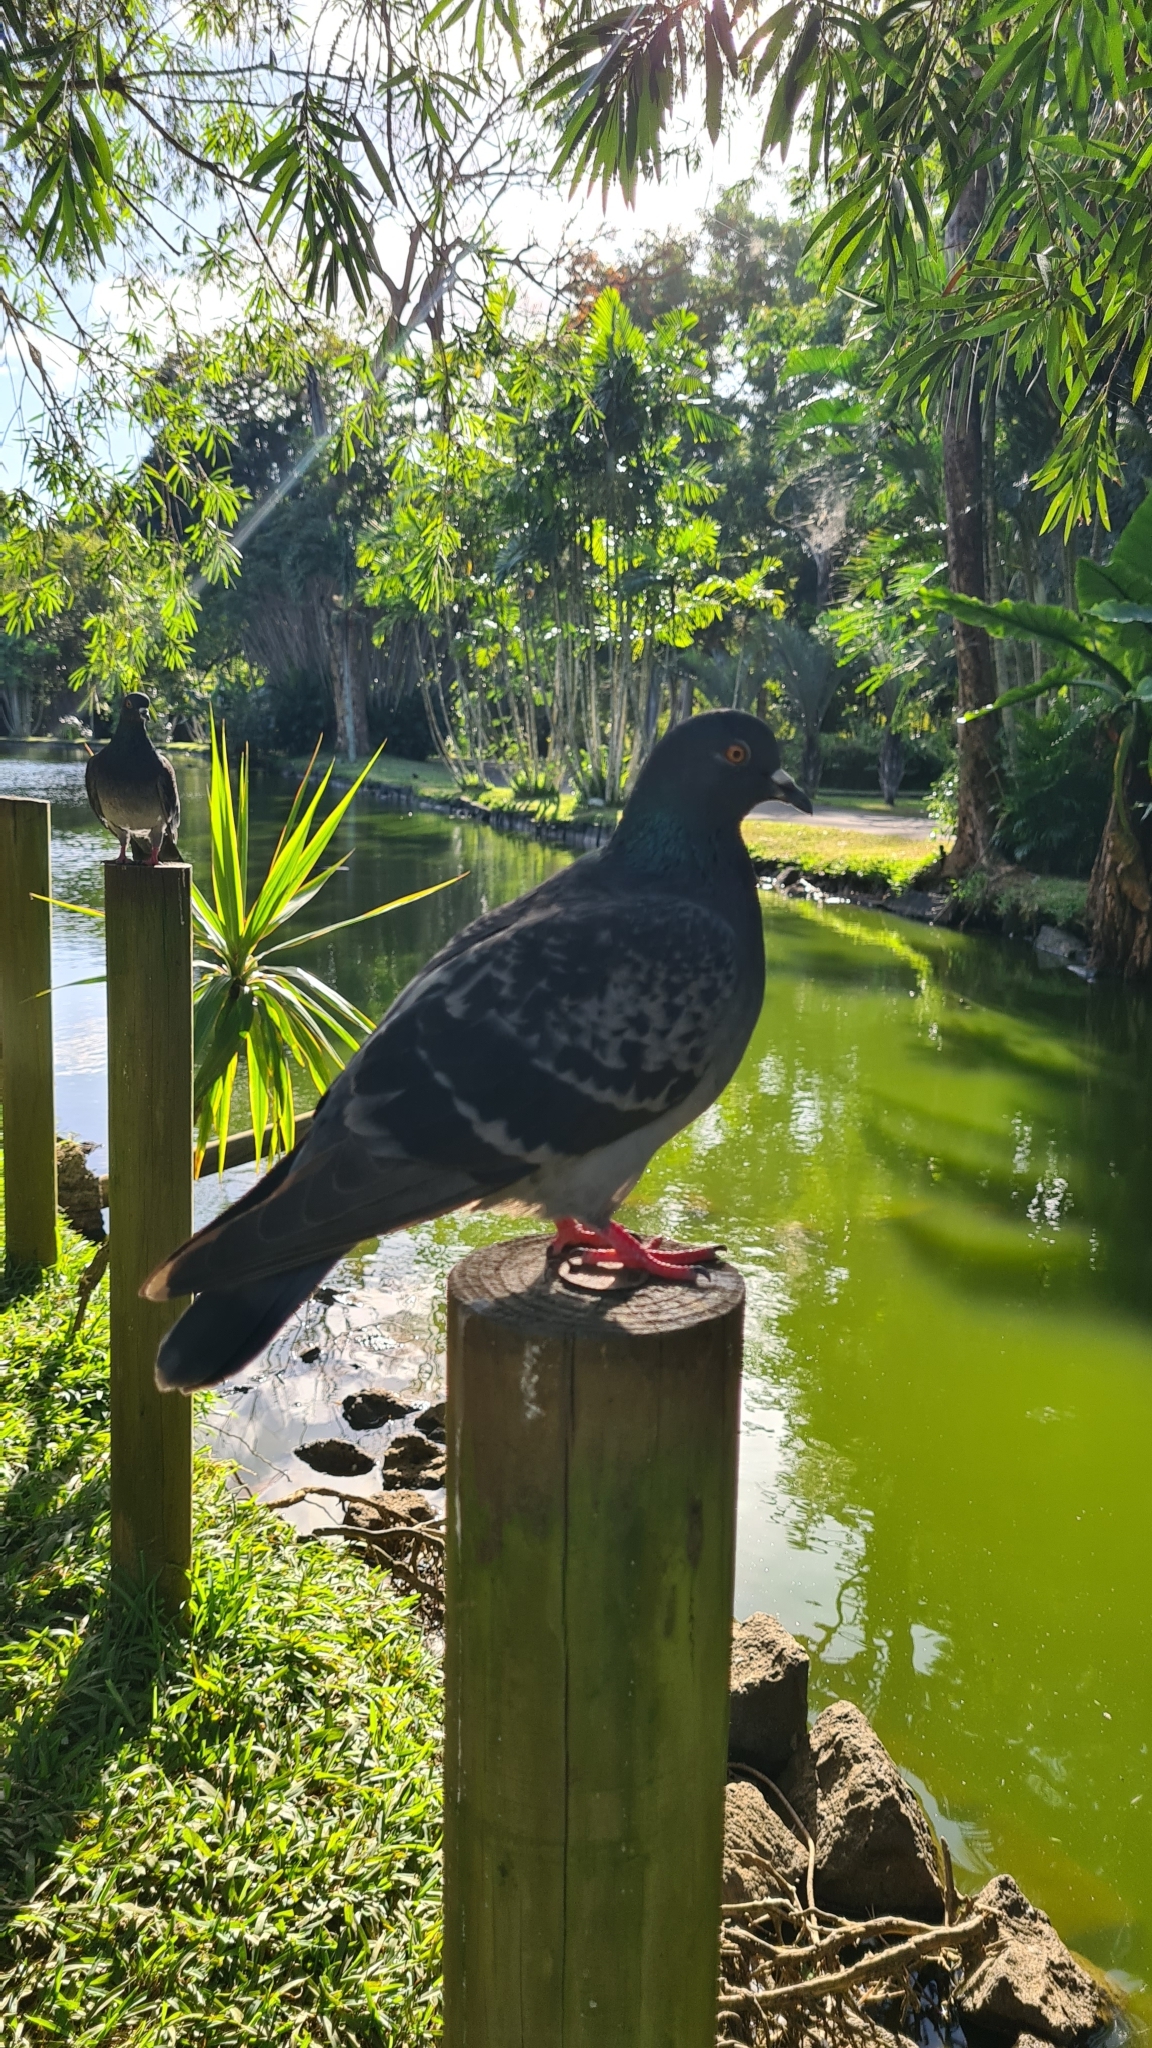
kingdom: Animalia
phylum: Chordata
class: Aves
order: Columbiformes
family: Columbidae
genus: Columba
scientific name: Columba livia
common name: Rock pigeon
